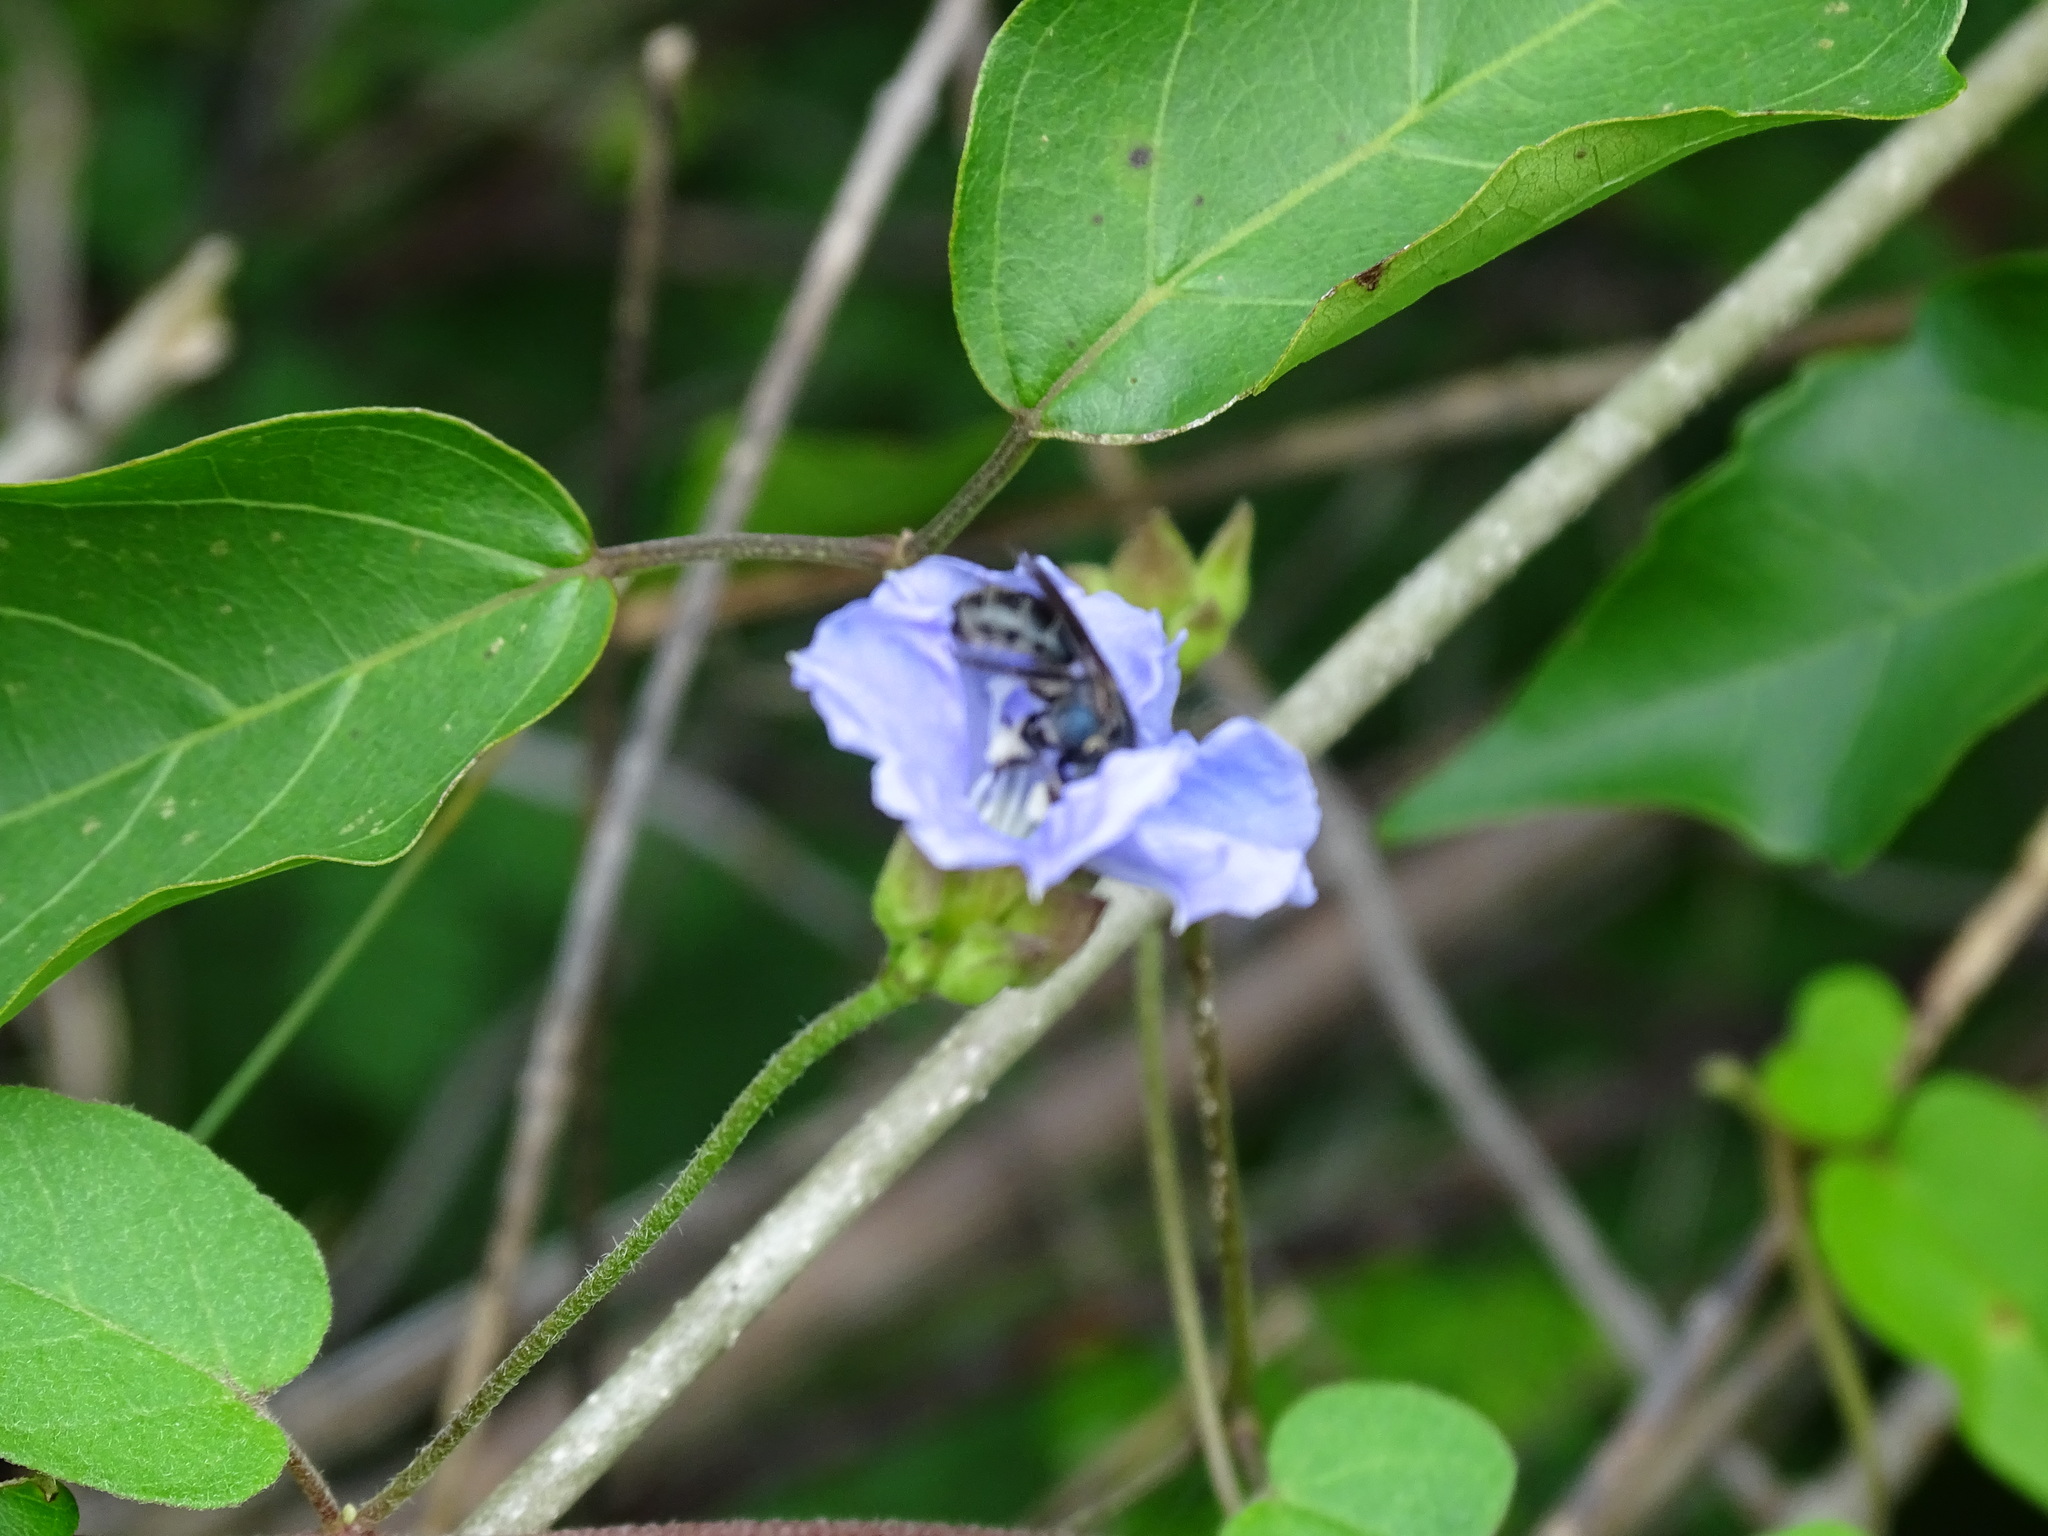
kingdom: Plantae
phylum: Tracheophyta
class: Magnoliopsida
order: Solanales
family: Convolvulaceae
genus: Jacquemontia
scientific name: Jacquemontia pentanthos
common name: Skyblue clustervine
